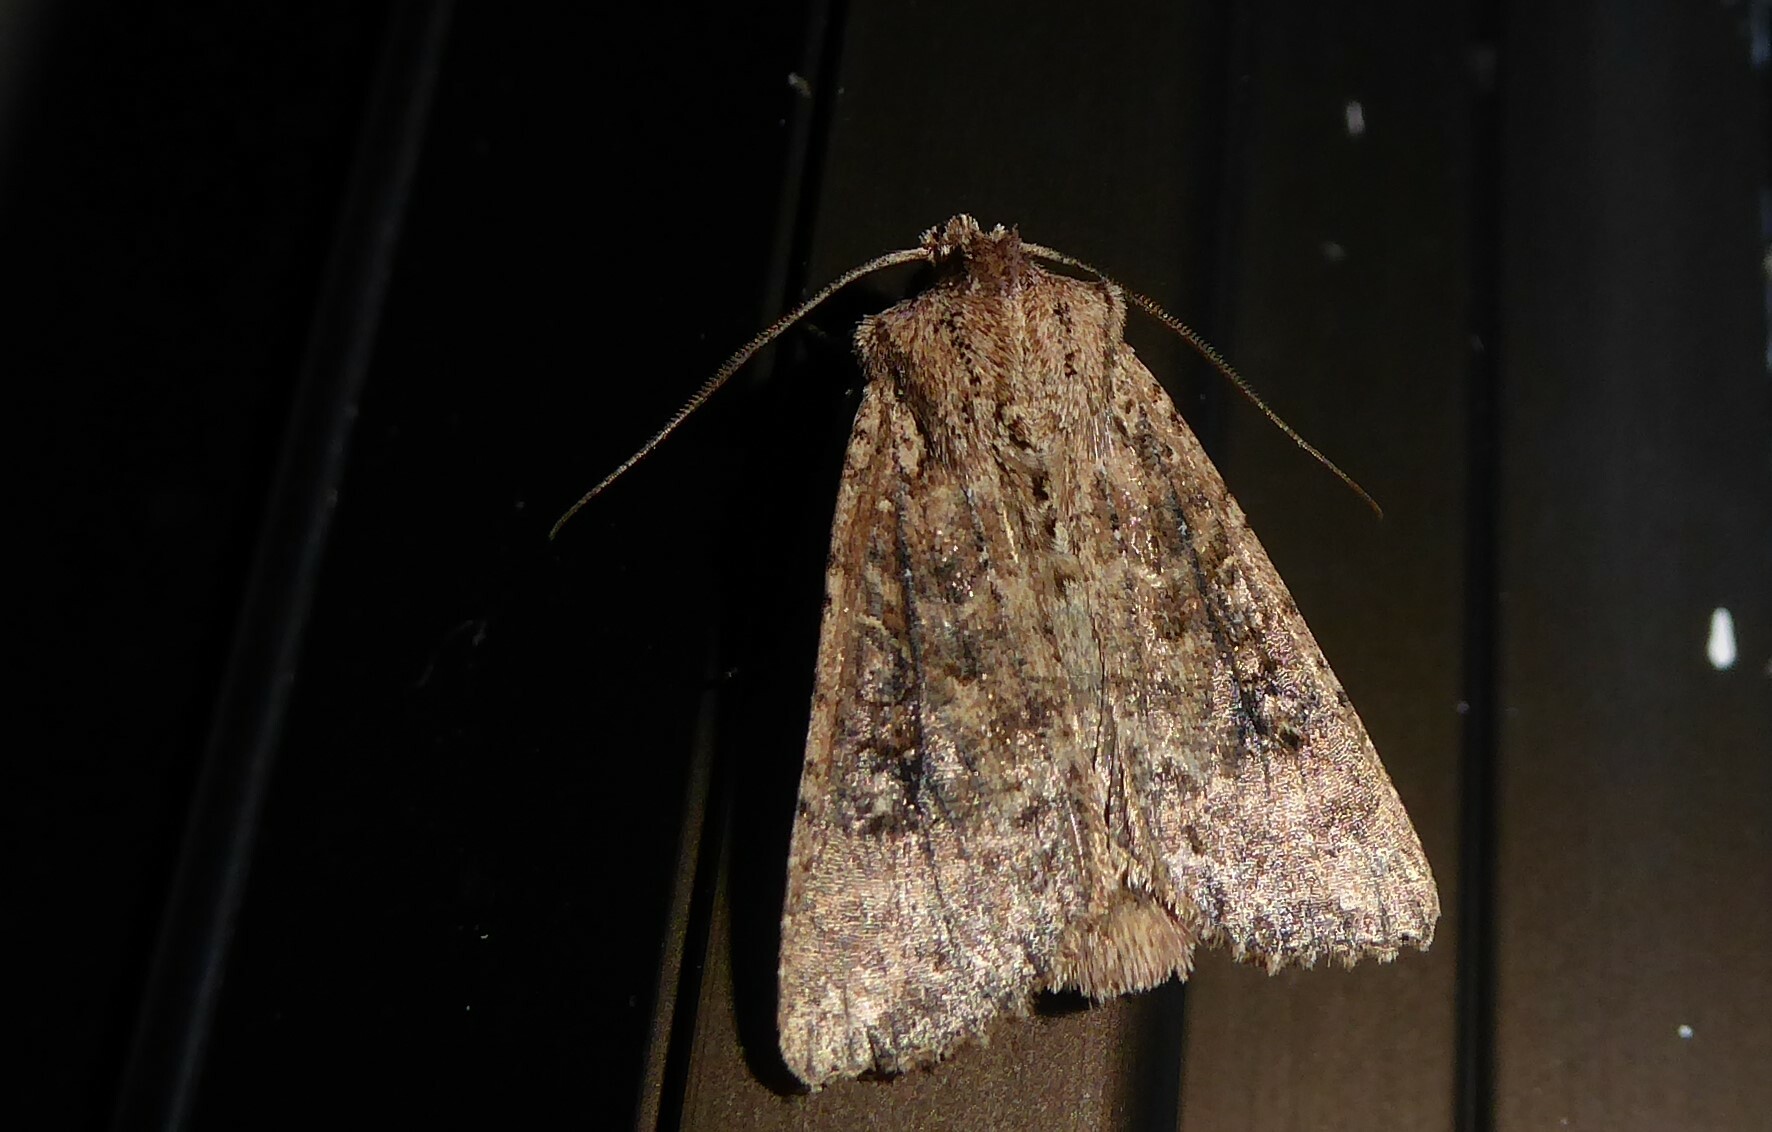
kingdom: Animalia
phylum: Arthropoda
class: Insecta
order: Lepidoptera
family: Noctuidae
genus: Ichneutica
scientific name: Ichneutica morosa
